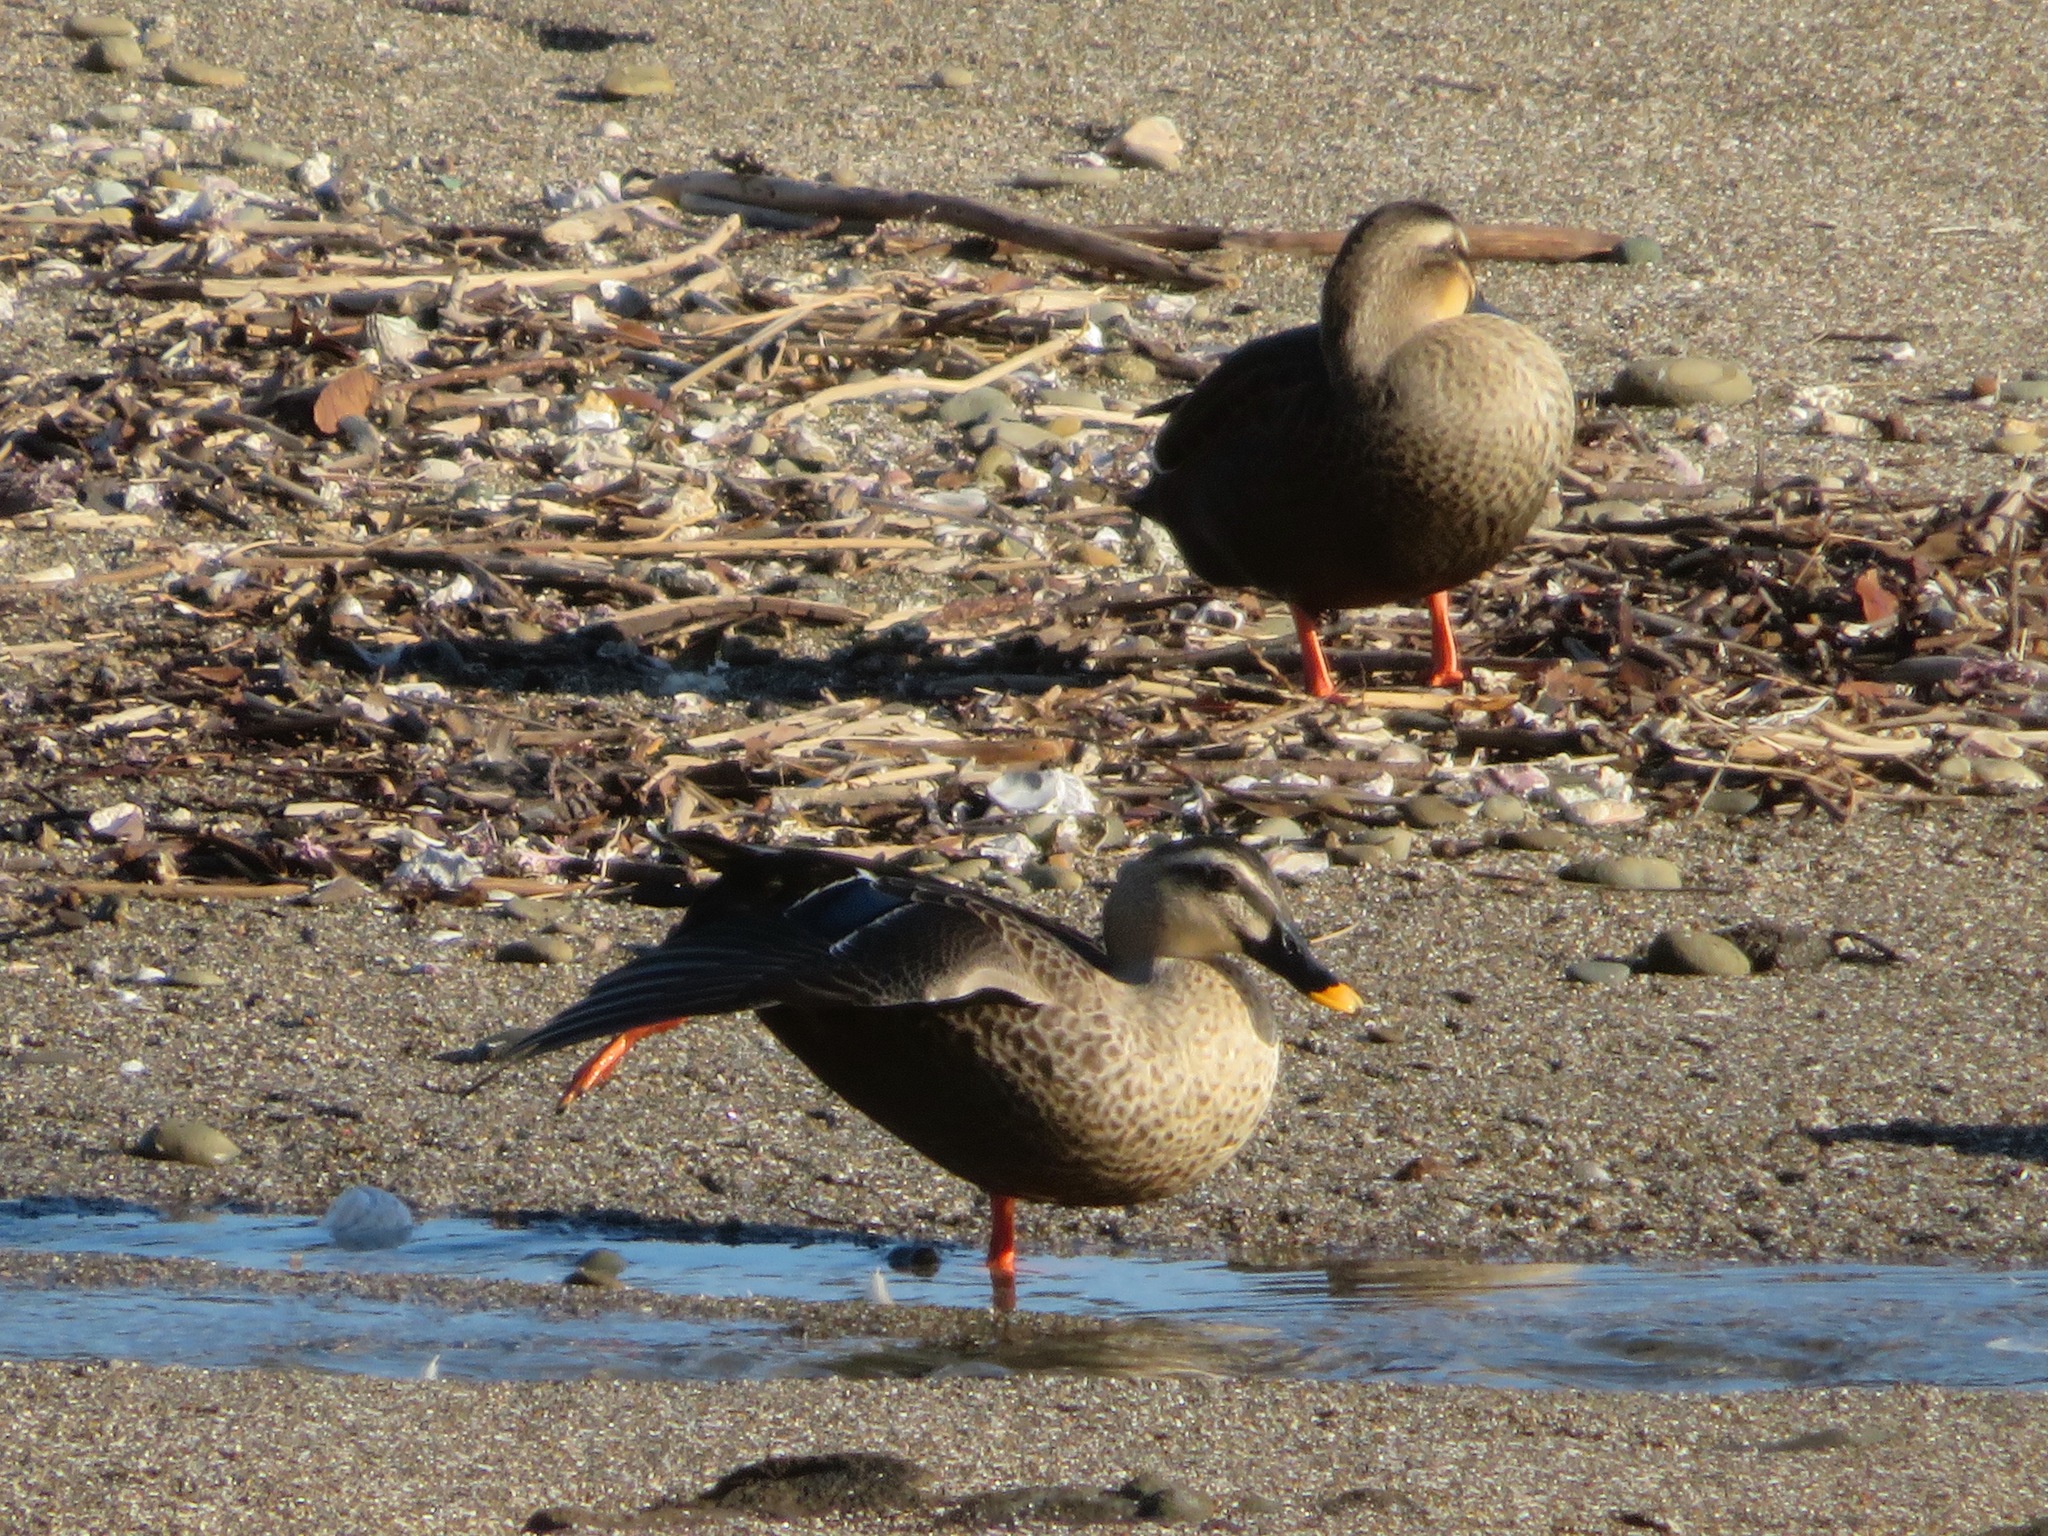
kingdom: Animalia
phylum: Chordata
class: Aves
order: Anseriformes
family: Anatidae
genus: Anas
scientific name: Anas zonorhyncha
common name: Eastern spot-billed duck
